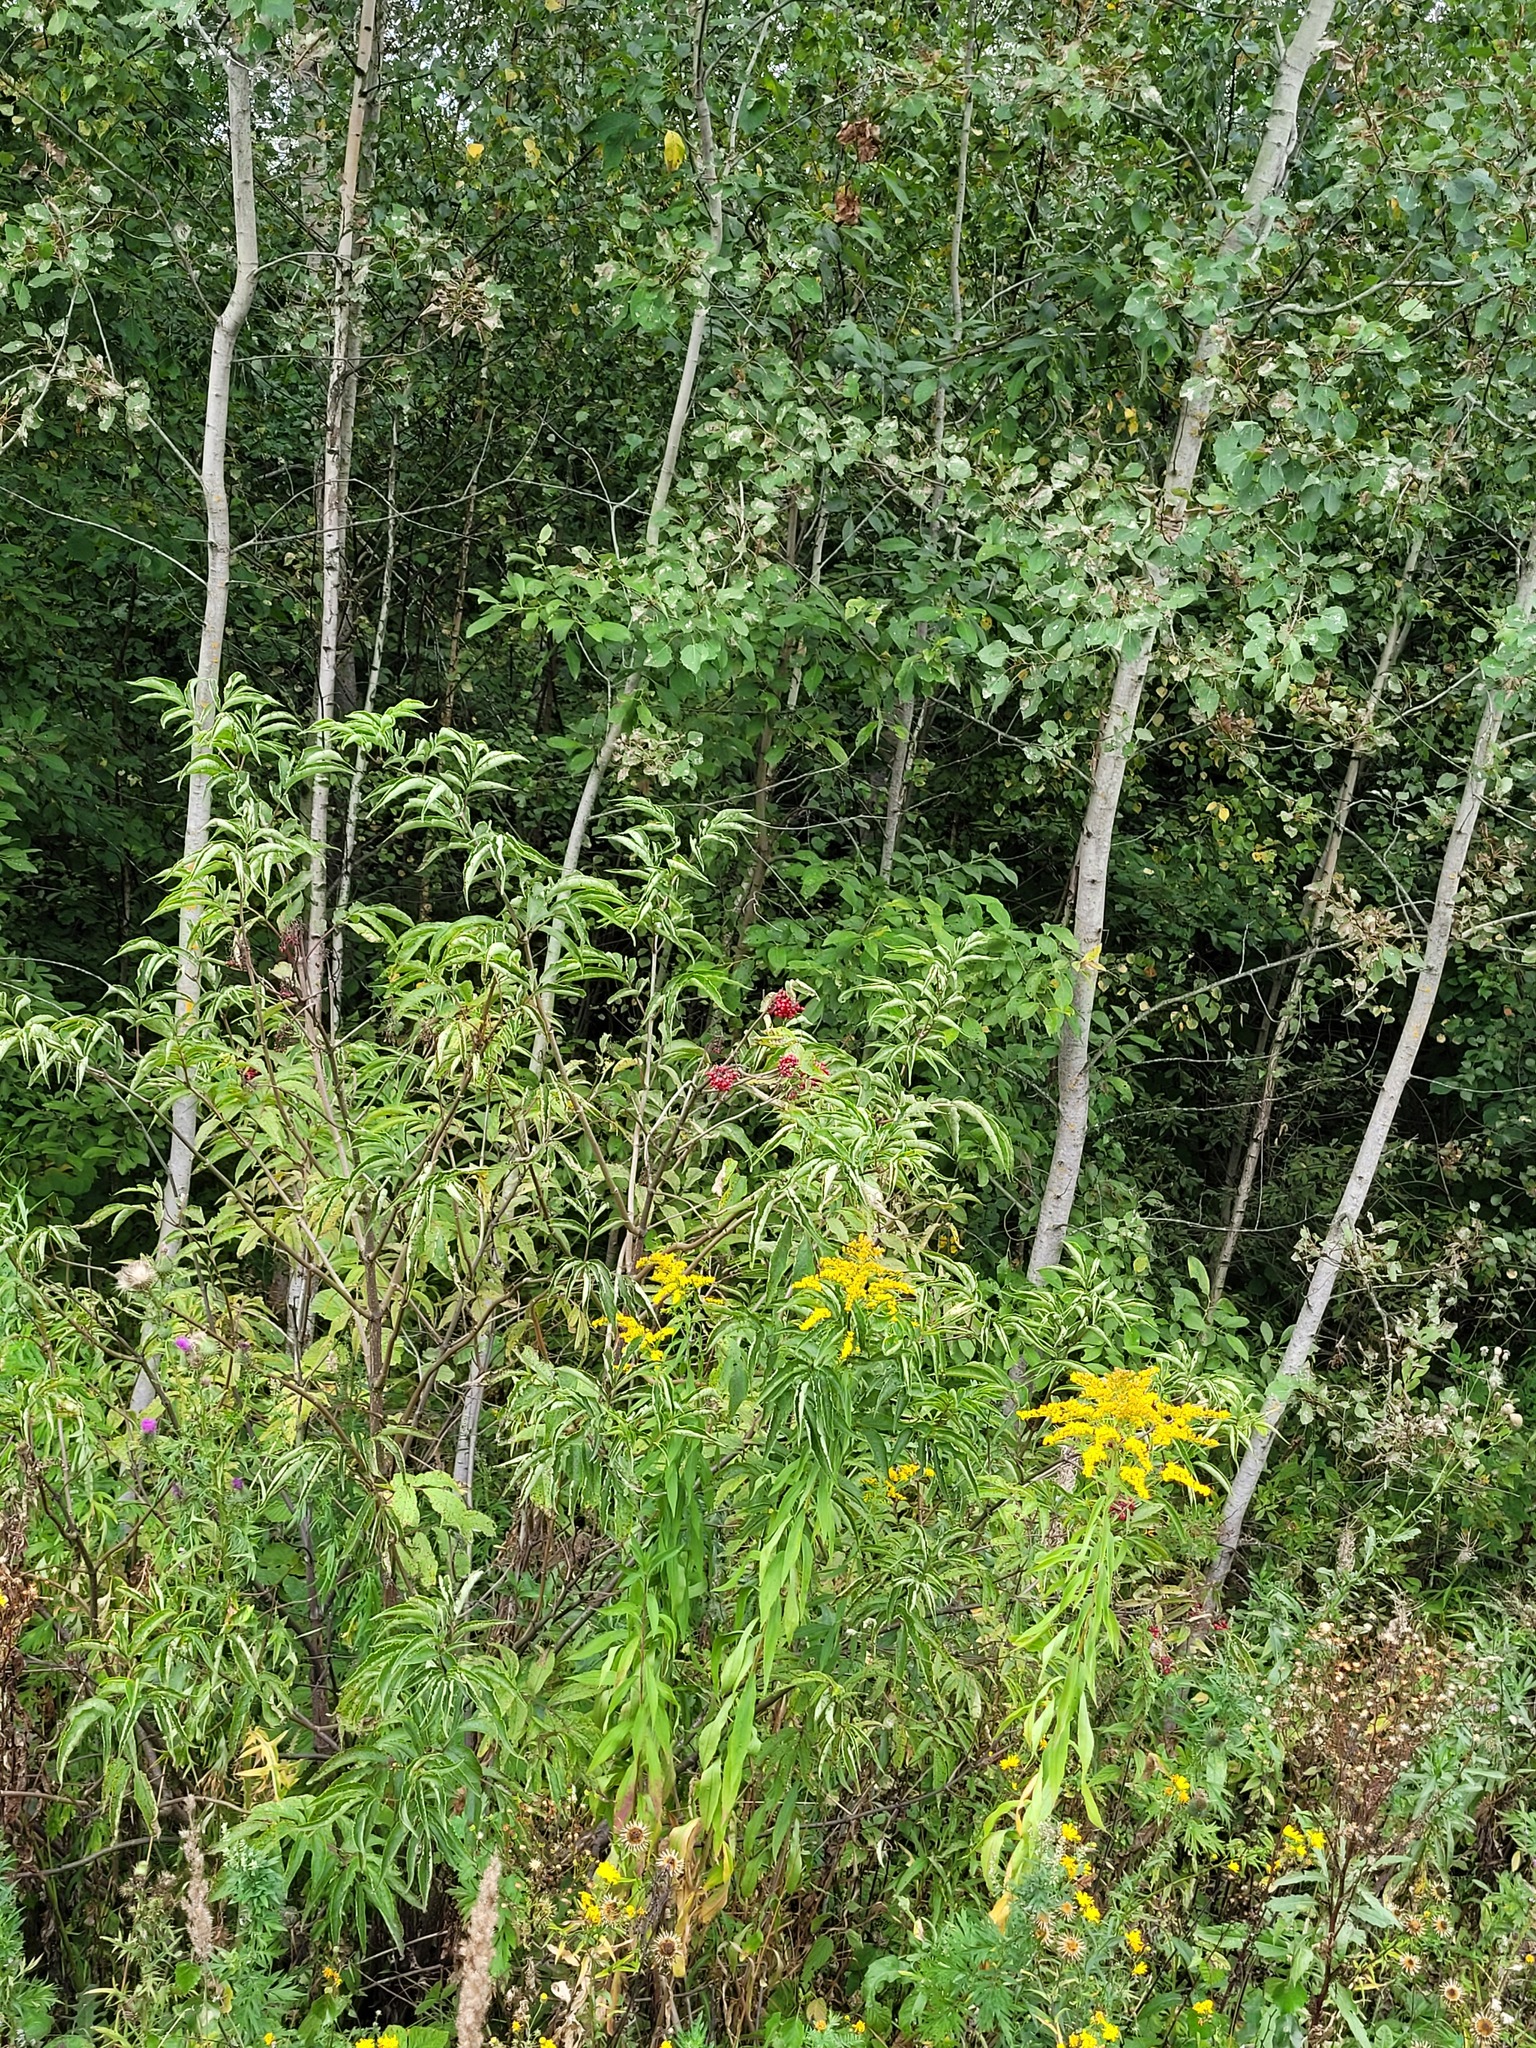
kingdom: Plantae
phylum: Tracheophyta
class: Magnoliopsida
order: Dipsacales
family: Viburnaceae
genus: Sambucus
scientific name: Sambucus racemosa
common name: Red-berried elder
